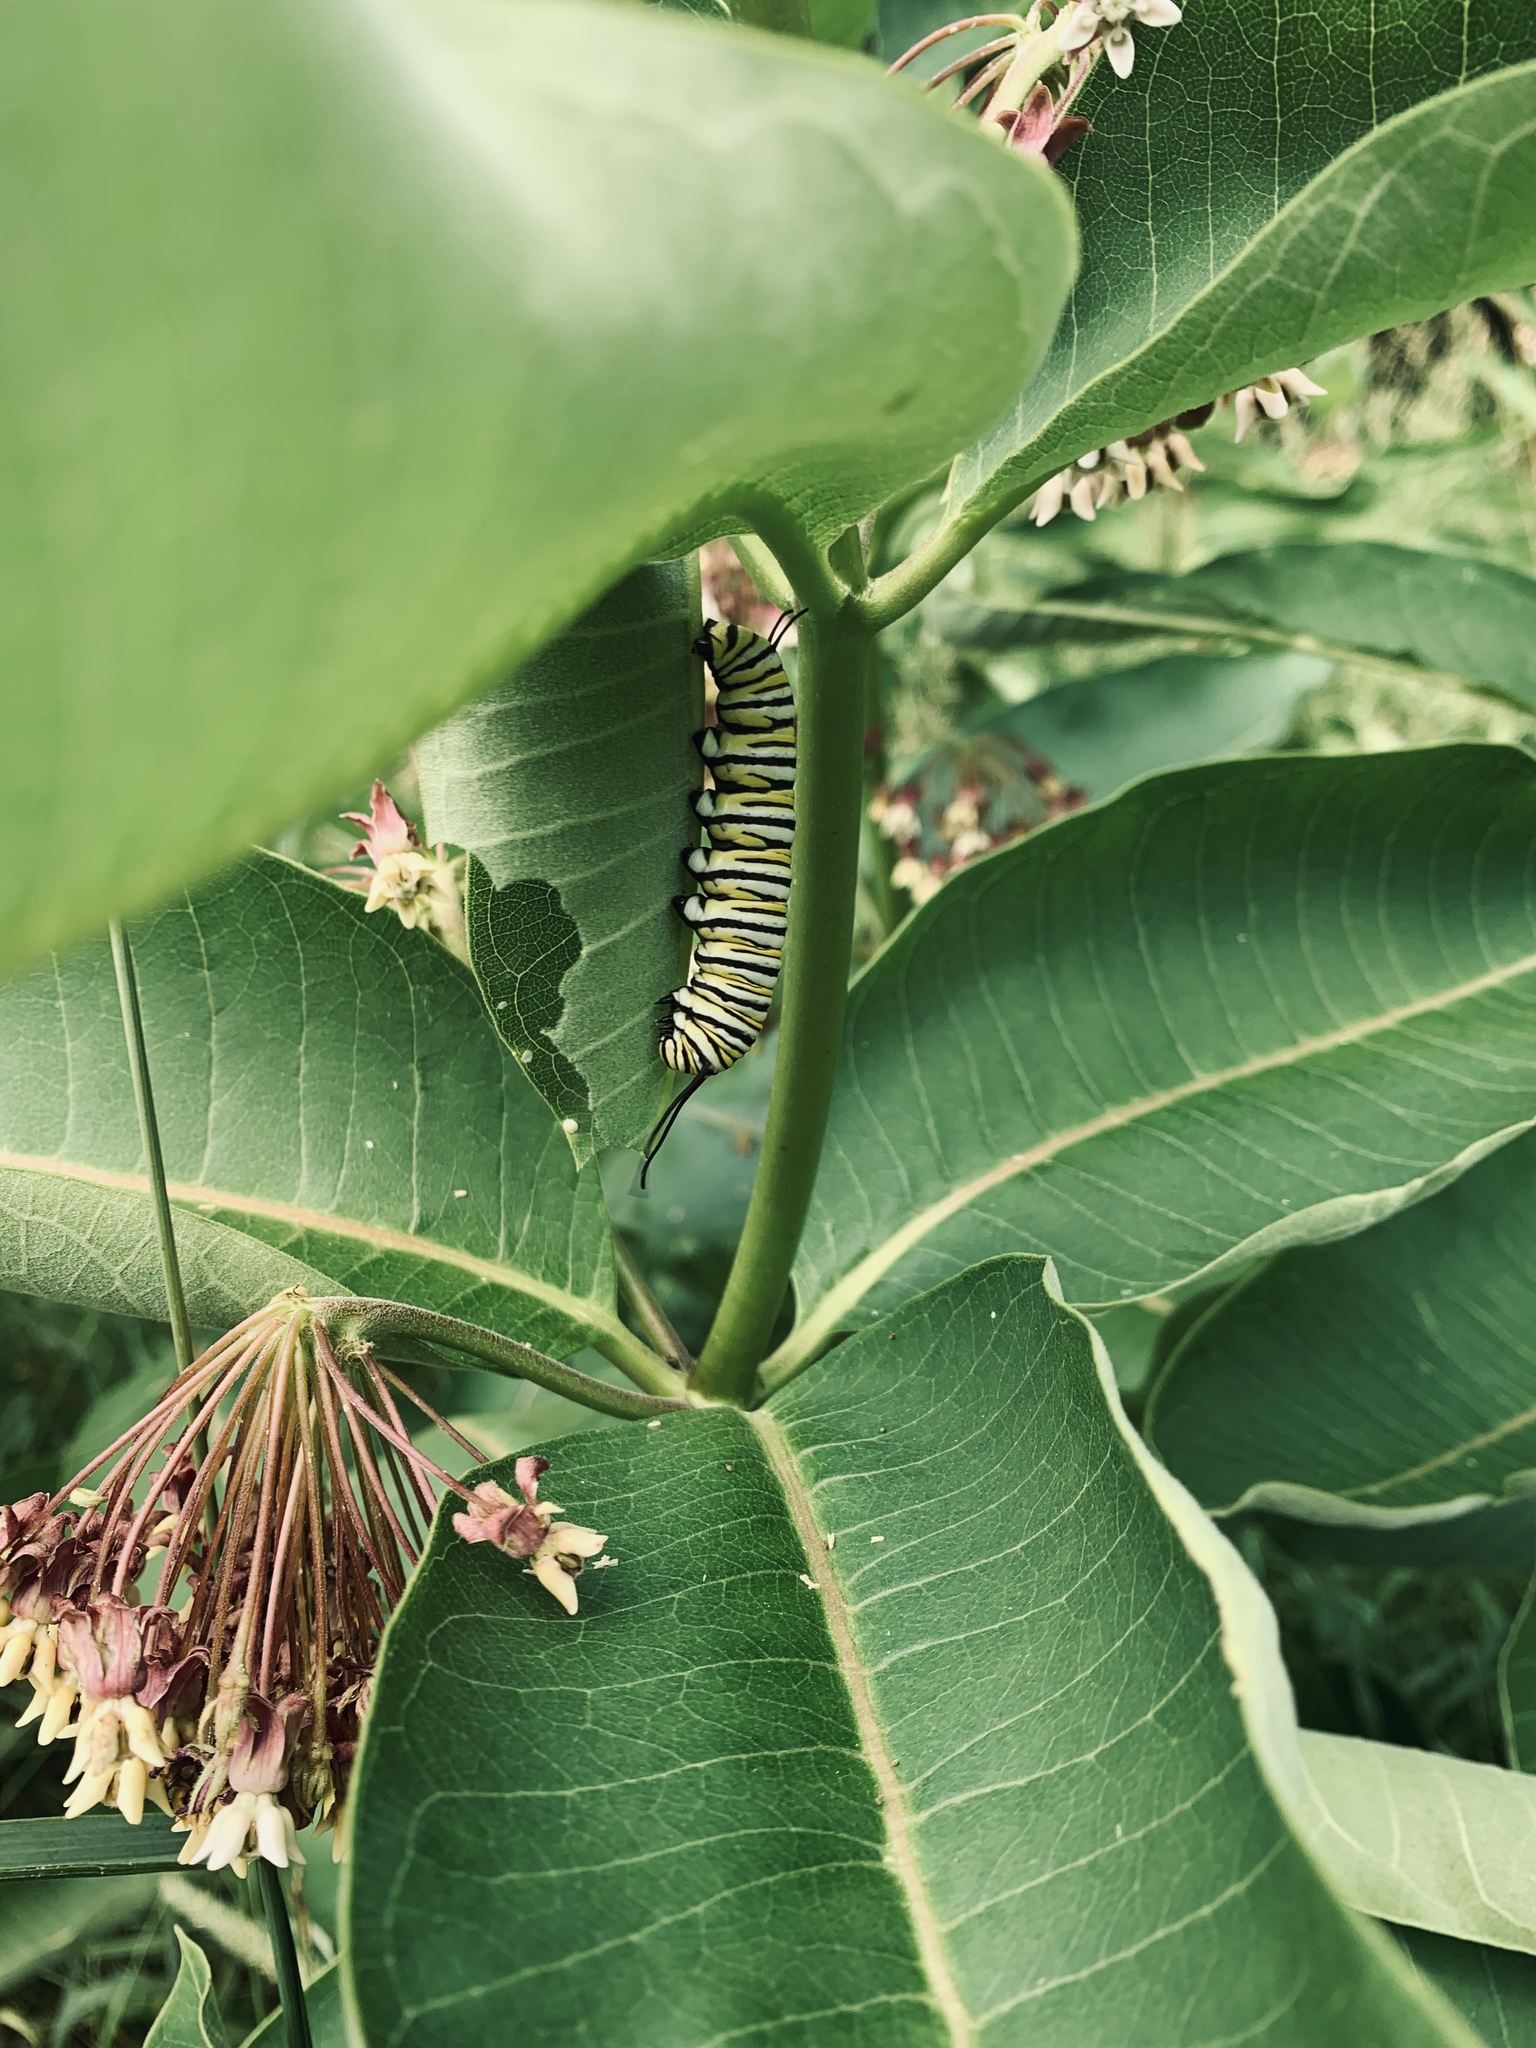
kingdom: Animalia
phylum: Arthropoda
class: Insecta
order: Lepidoptera
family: Nymphalidae
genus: Danaus
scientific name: Danaus plexippus
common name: Monarch
